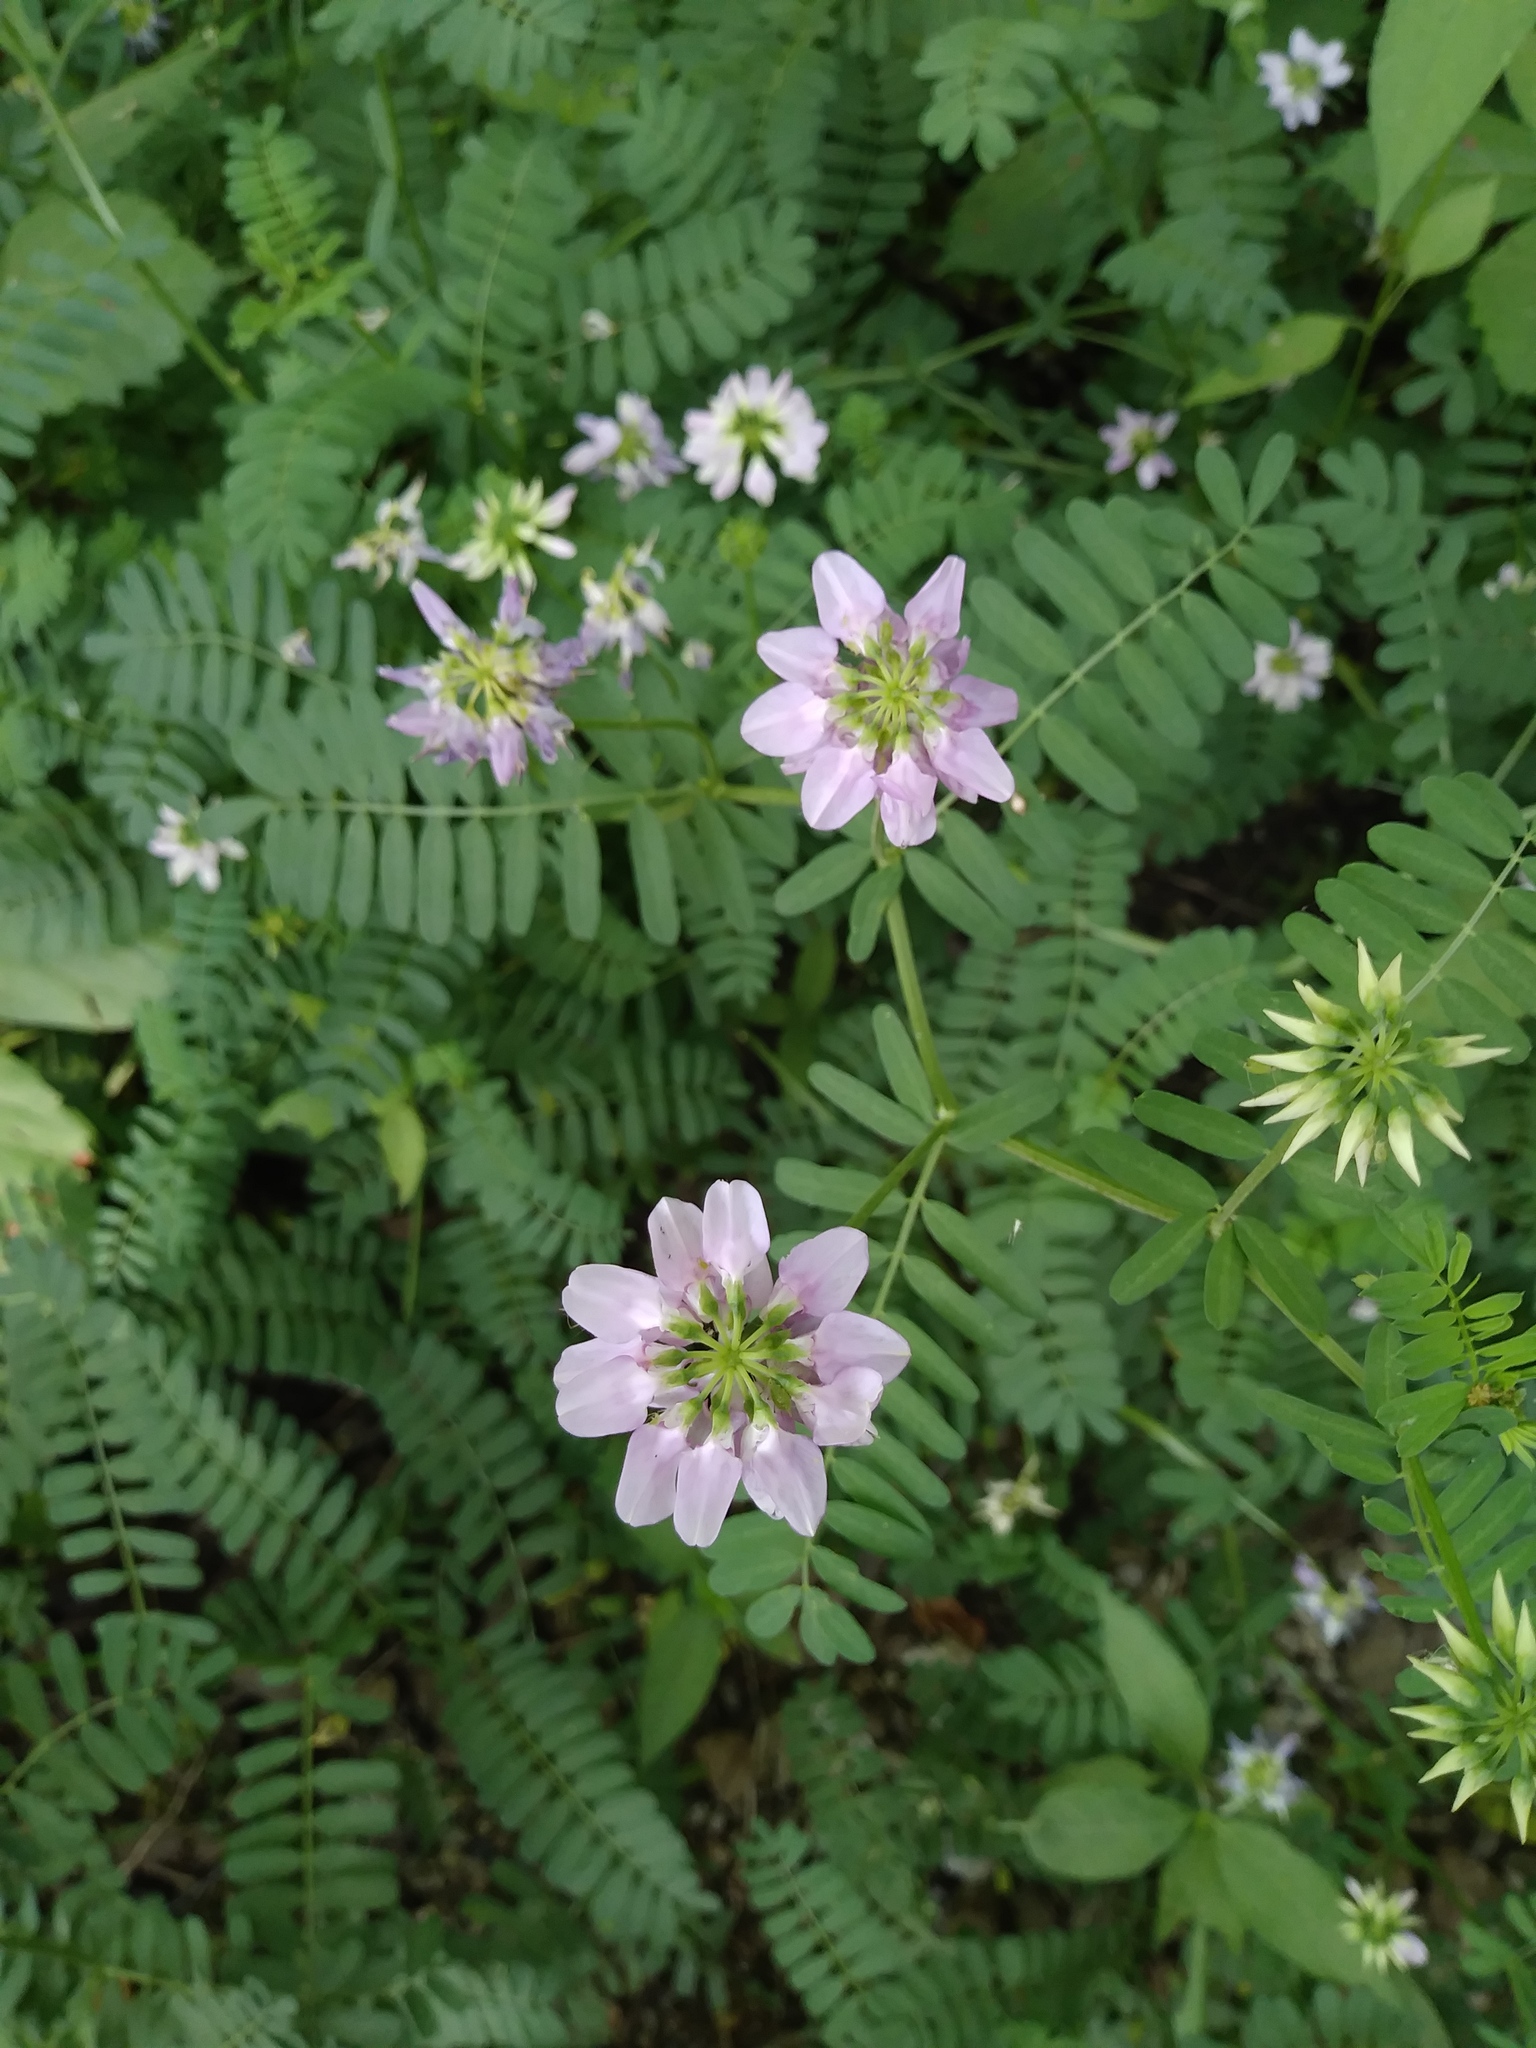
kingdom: Plantae
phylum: Tracheophyta
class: Magnoliopsida
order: Fabales
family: Fabaceae
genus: Coronilla
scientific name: Coronilla varia
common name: Crownvetch
